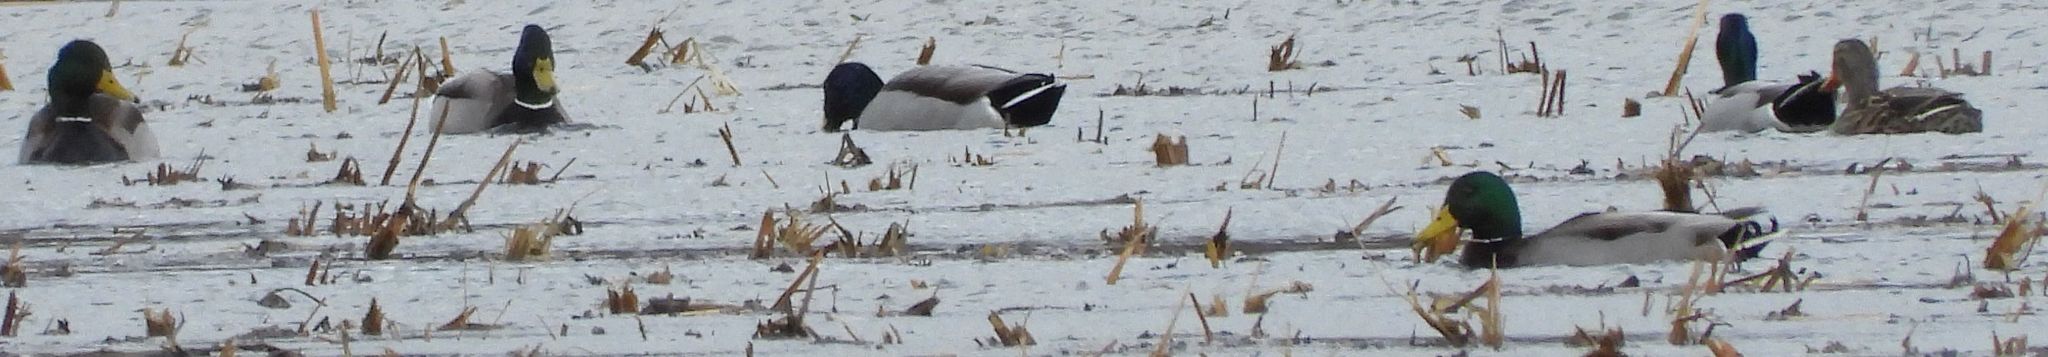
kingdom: Animalia
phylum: Chordata
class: Aves
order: Anseriformes
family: Anatidae
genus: Anas
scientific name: Anas platyrhynchos
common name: Mallard
